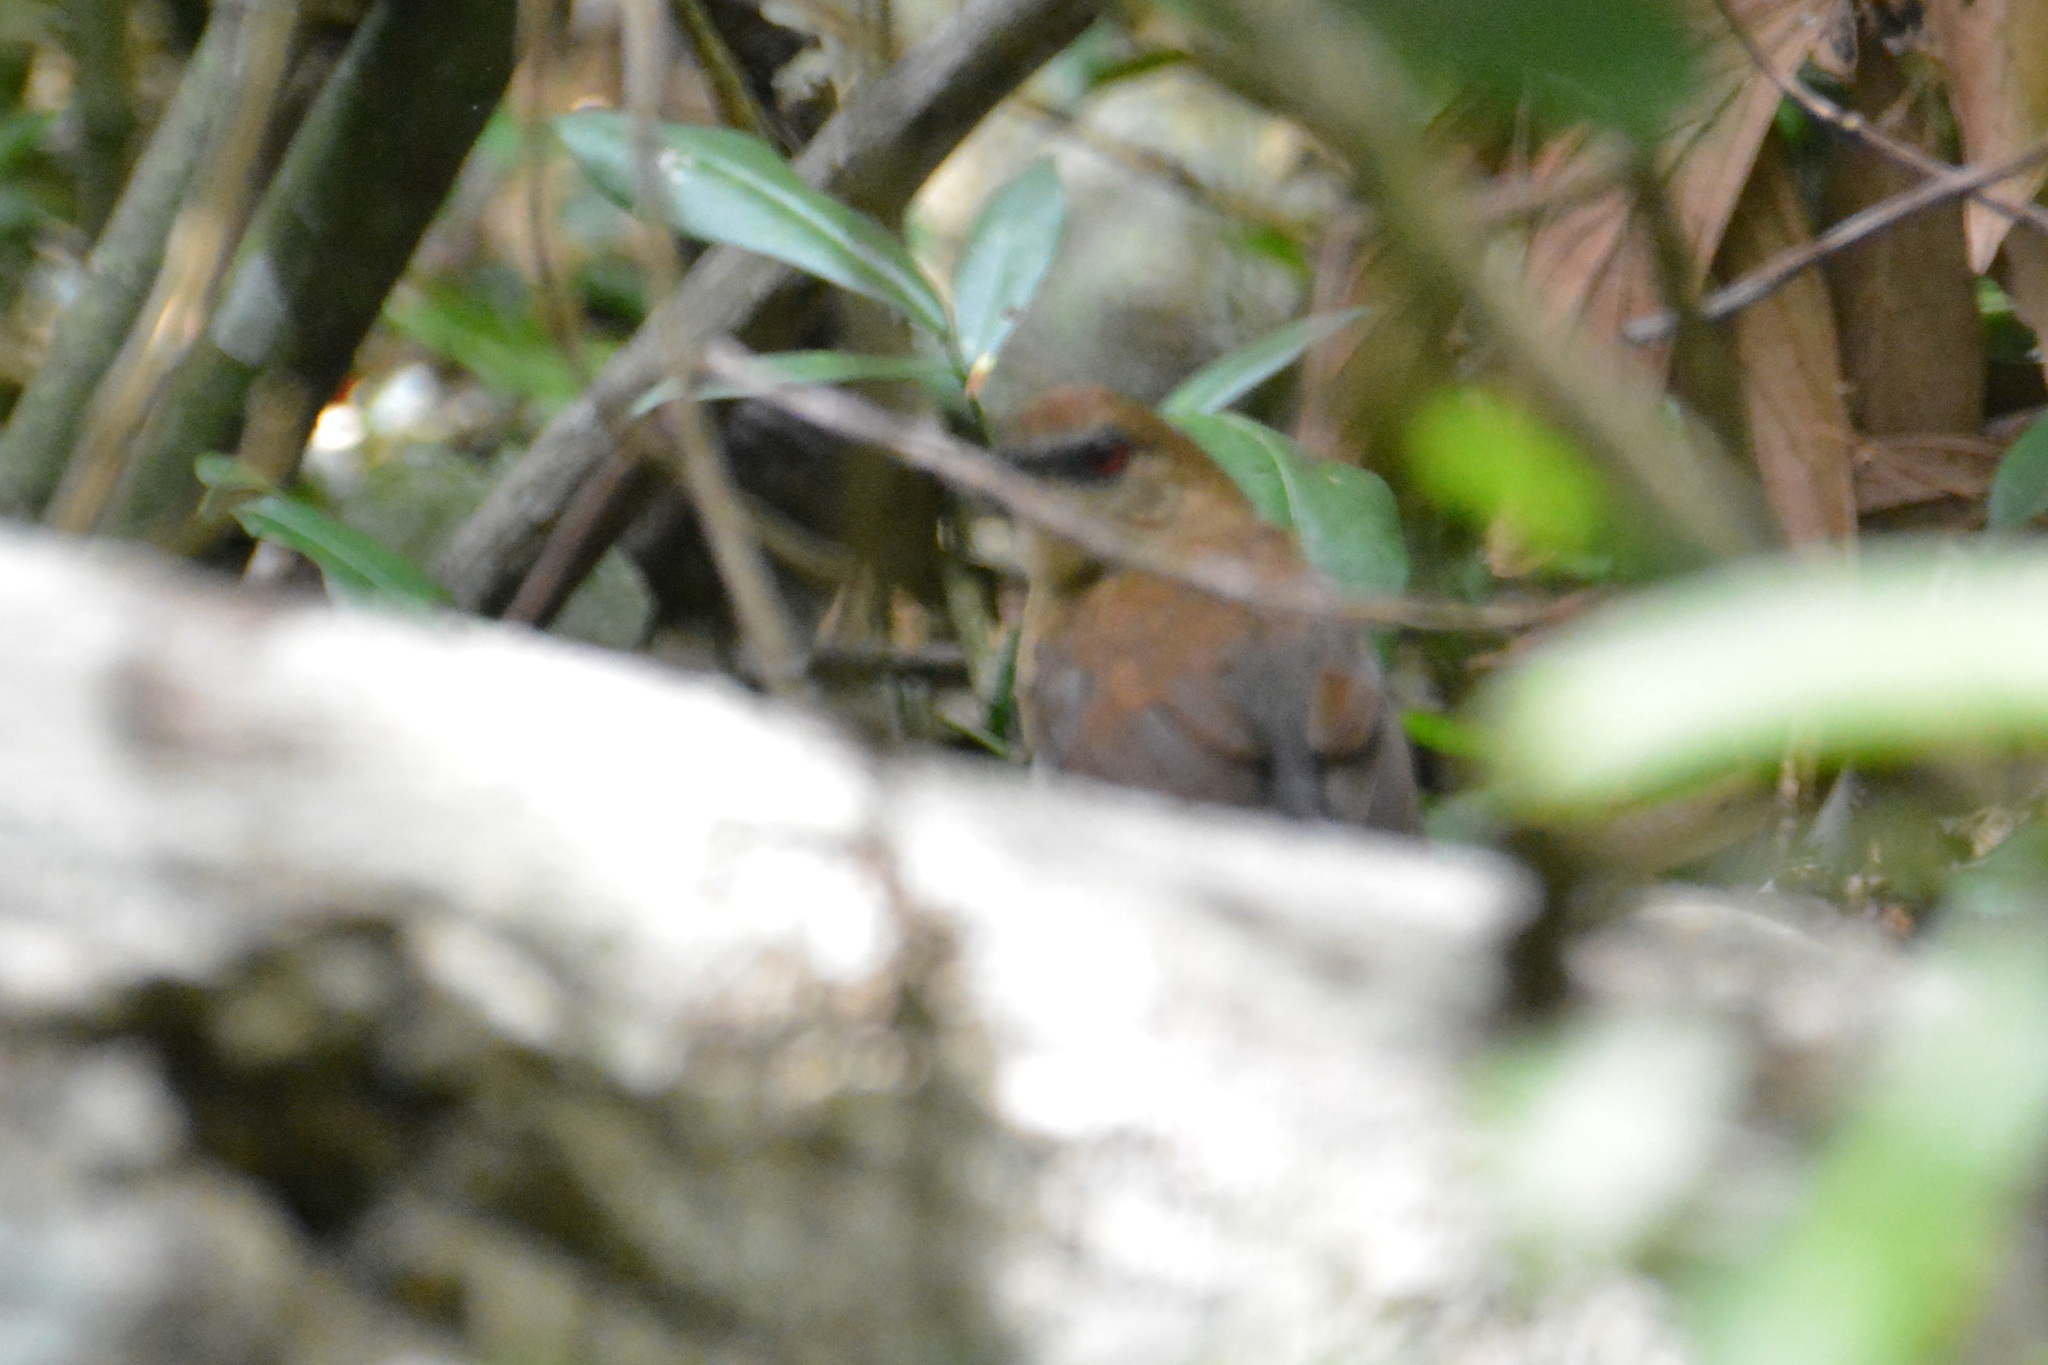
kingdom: Animalia
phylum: Chordata
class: Aves
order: Passeriformes
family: Thamnophilidae
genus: Pyriglena
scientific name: Pyriglena leucoptera
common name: White-shouldered fire-eye
